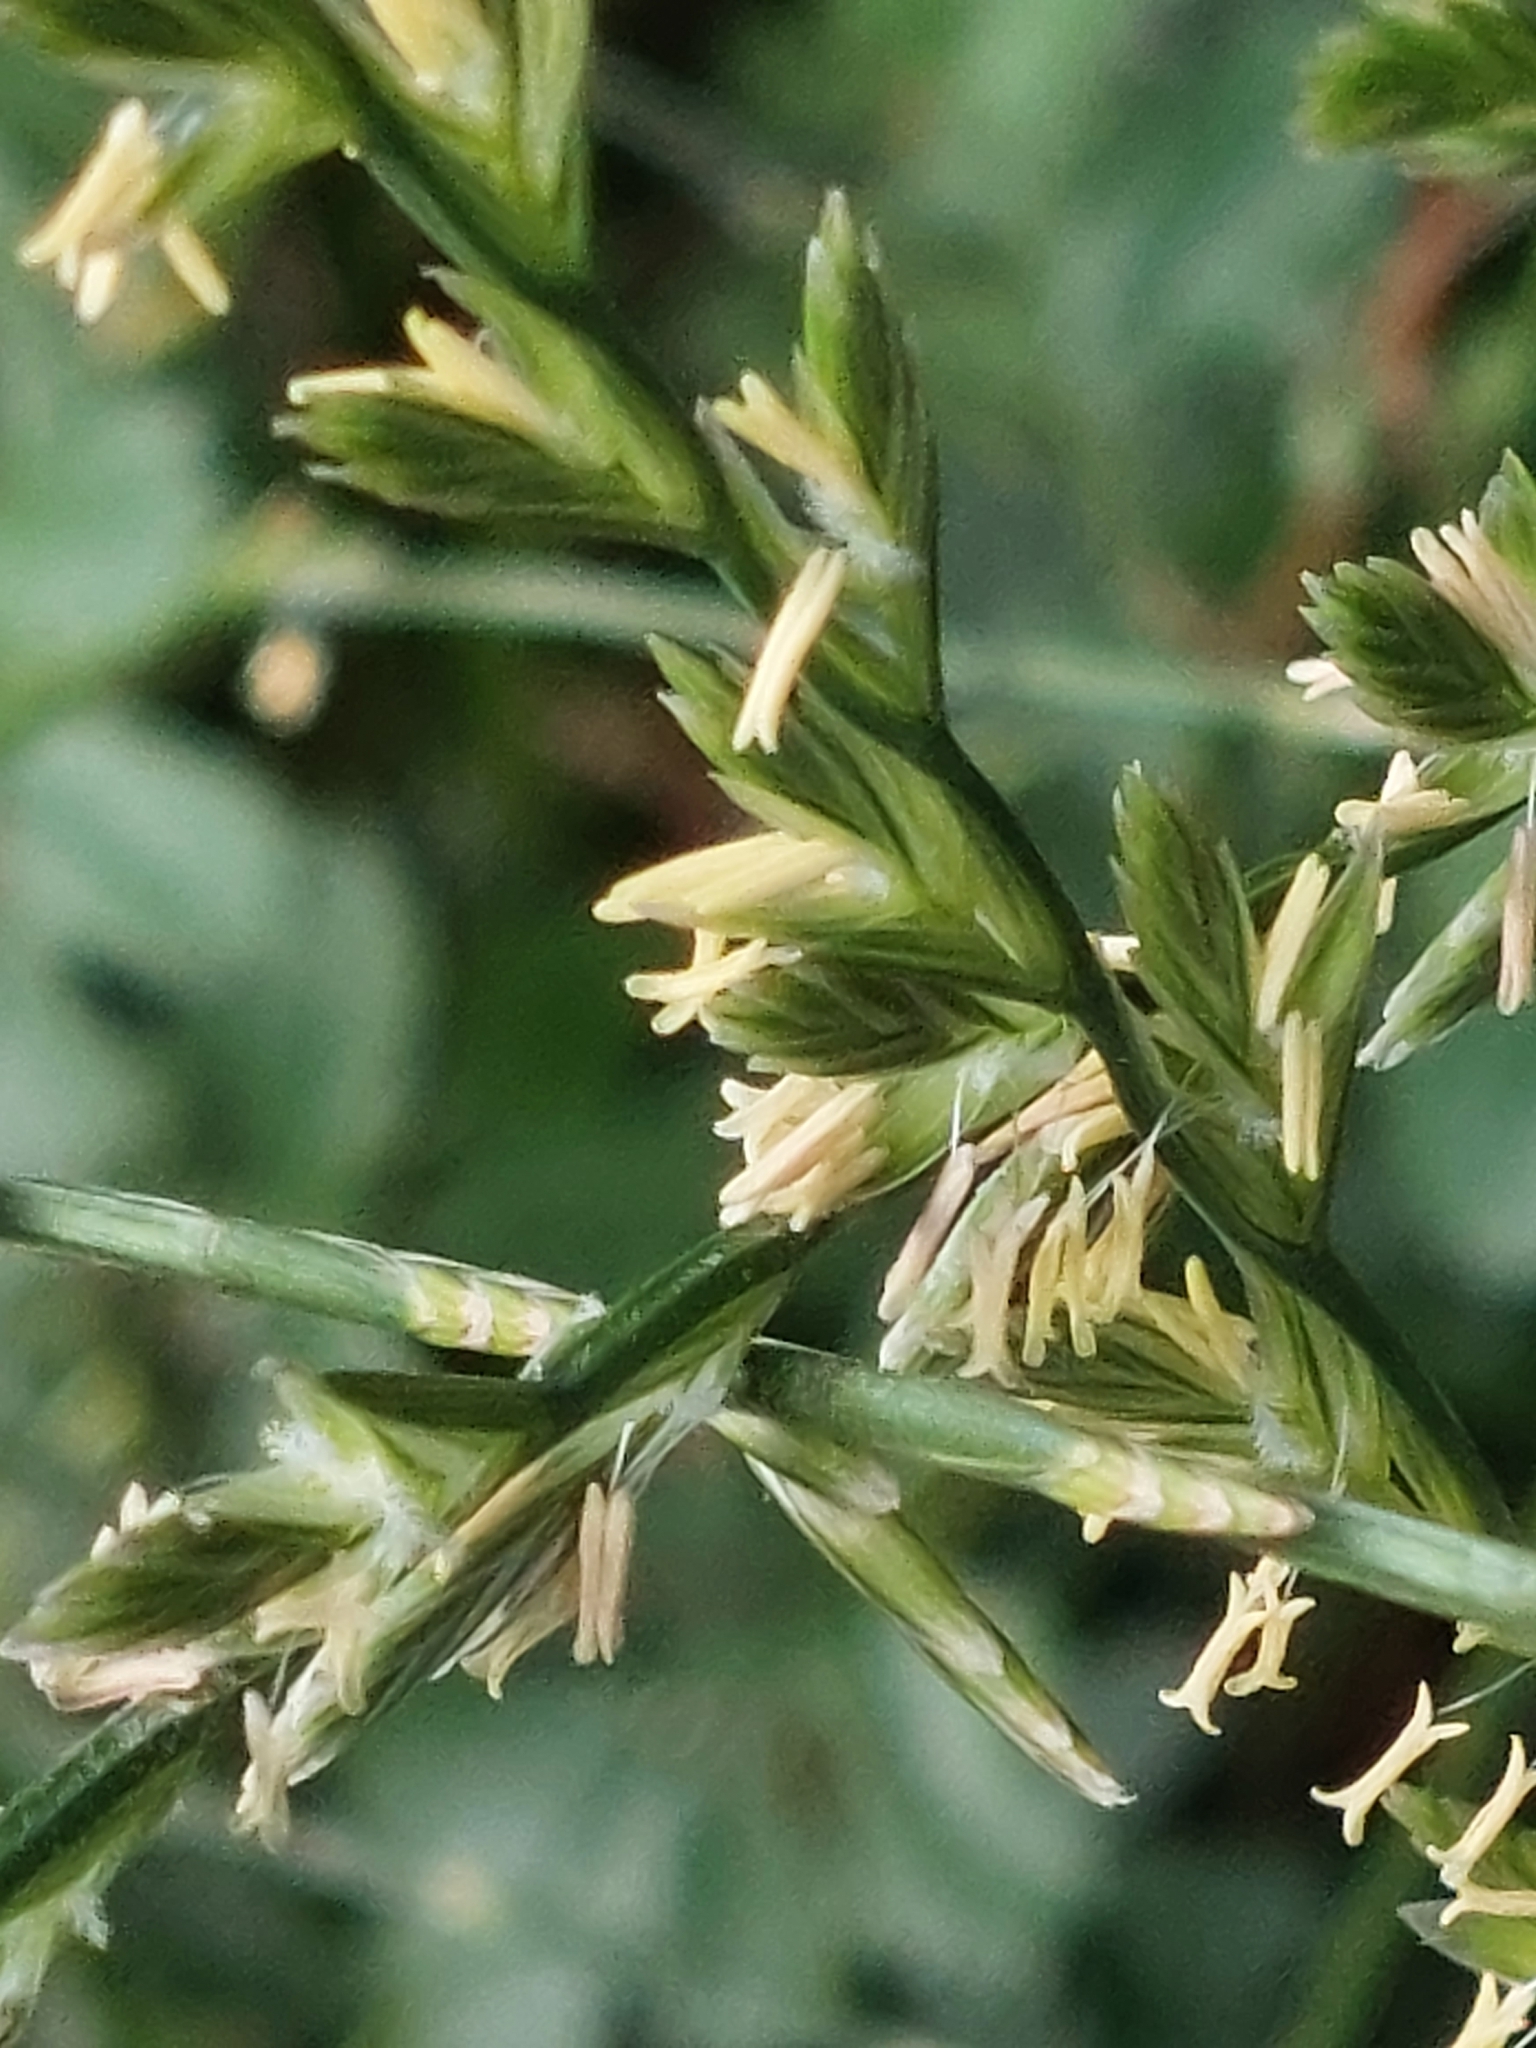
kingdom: Plantae
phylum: Tracheophyta
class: Liliopsida
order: Poales
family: Poaceae
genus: Lolium
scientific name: Lolium perenne
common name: Perennial ryegrass
